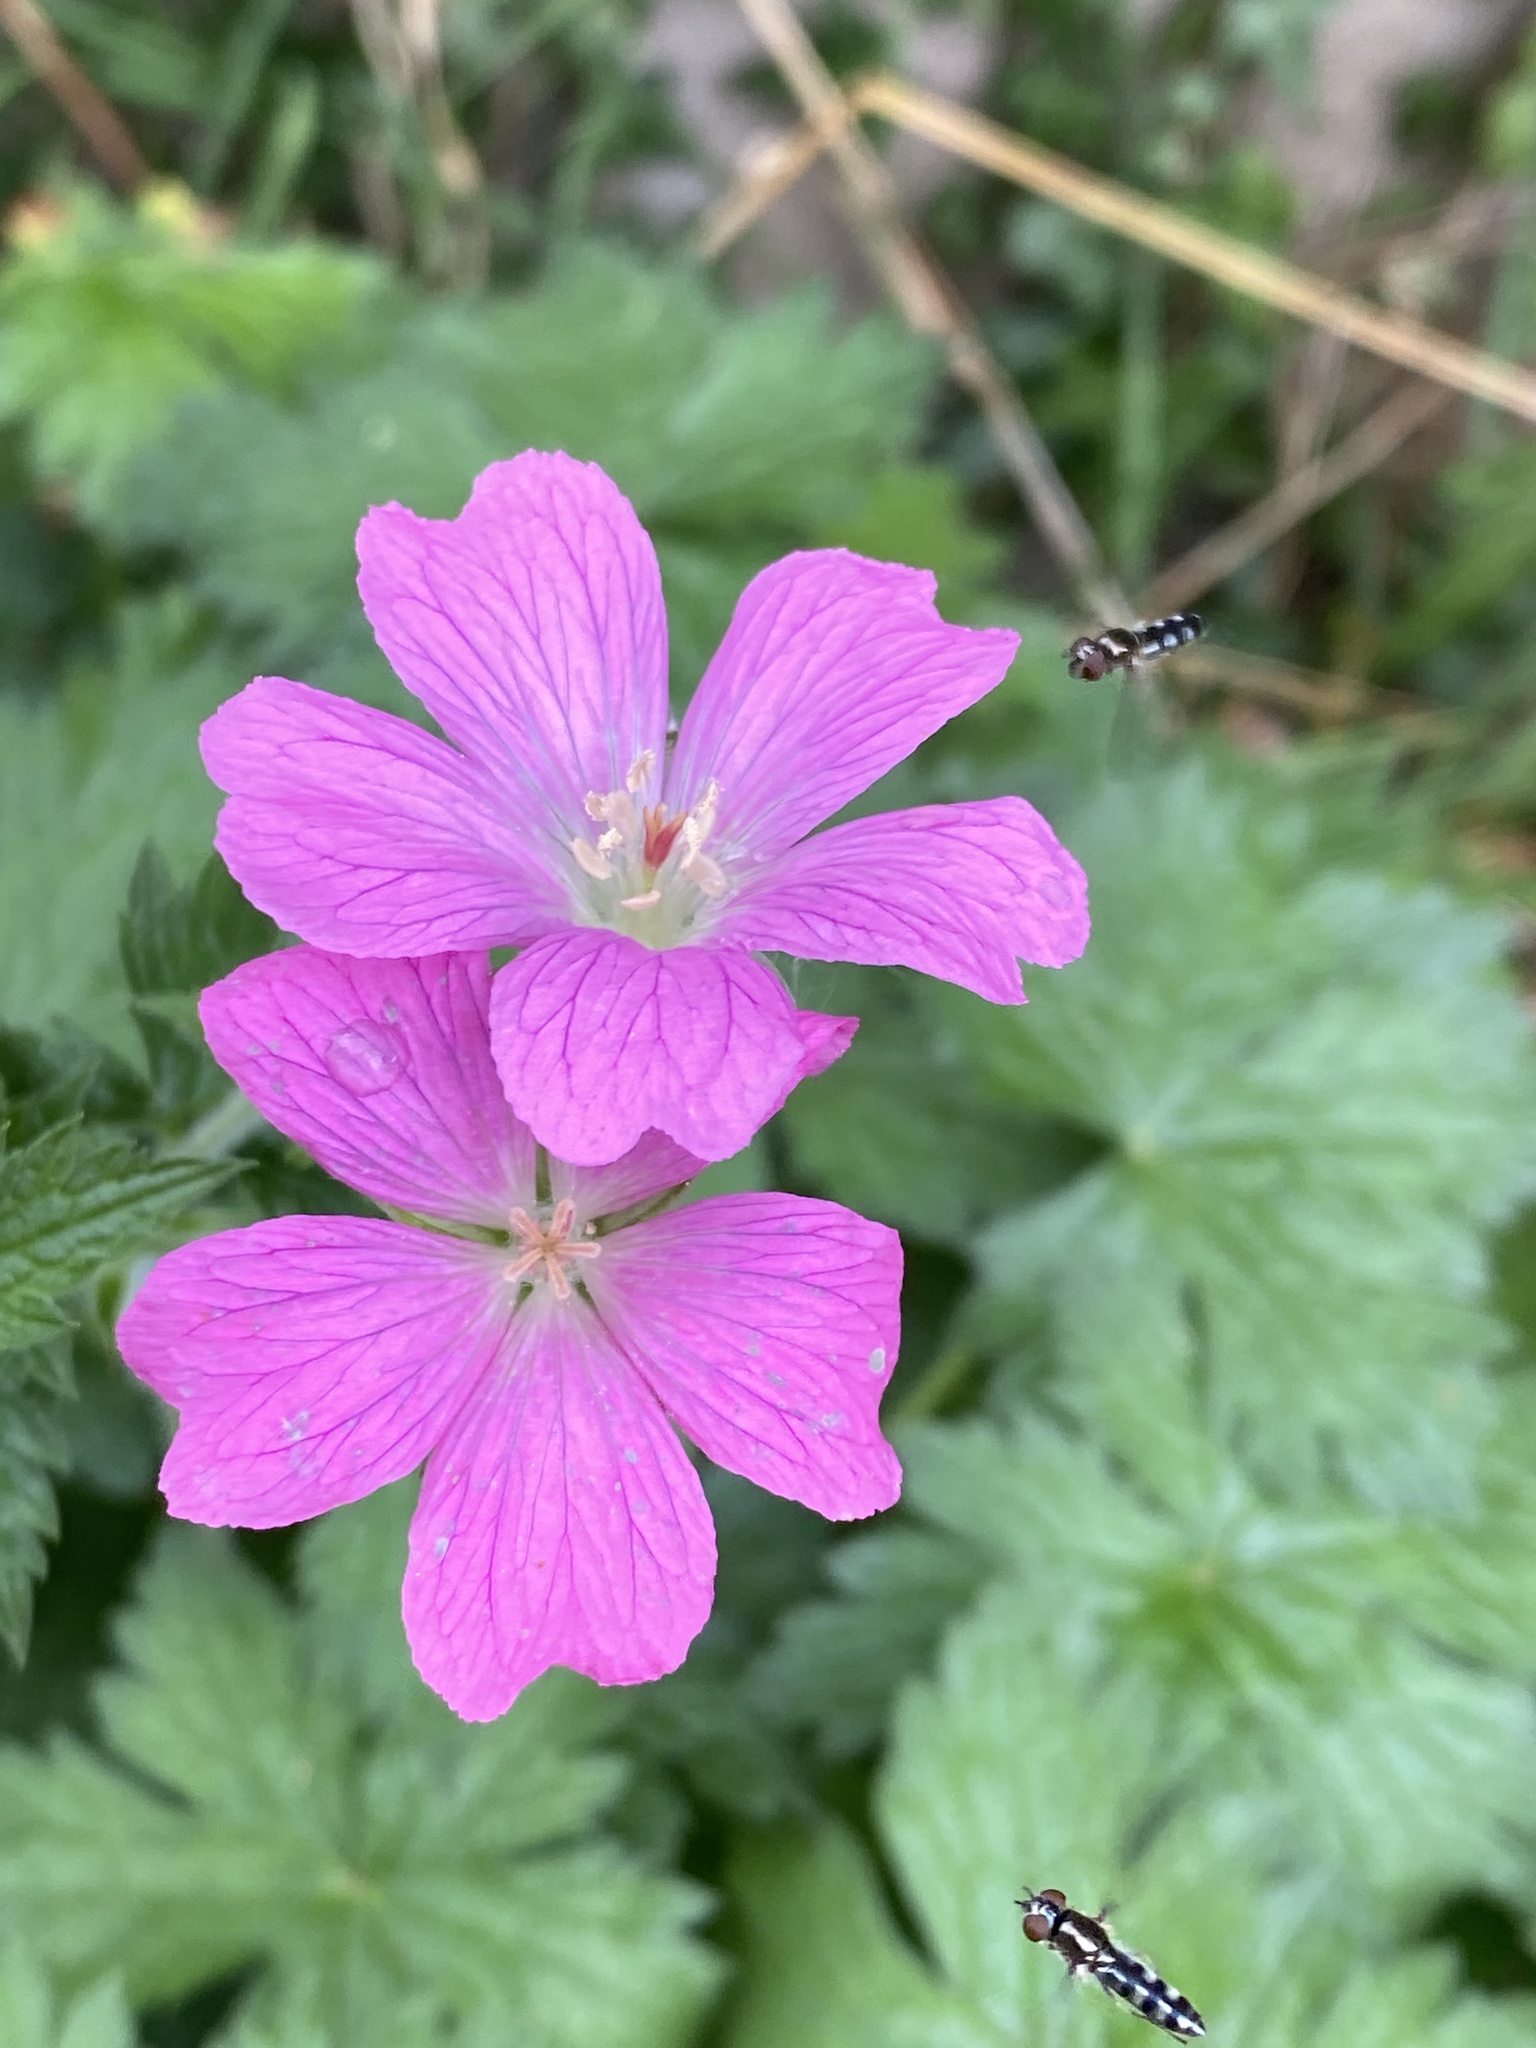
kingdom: Plantae
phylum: Tracheophyta
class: Magnoliopsida
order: Geraniales
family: Geraniaceae
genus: Geranium
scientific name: Geranium oxonianum
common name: Druce's crane's-bill
